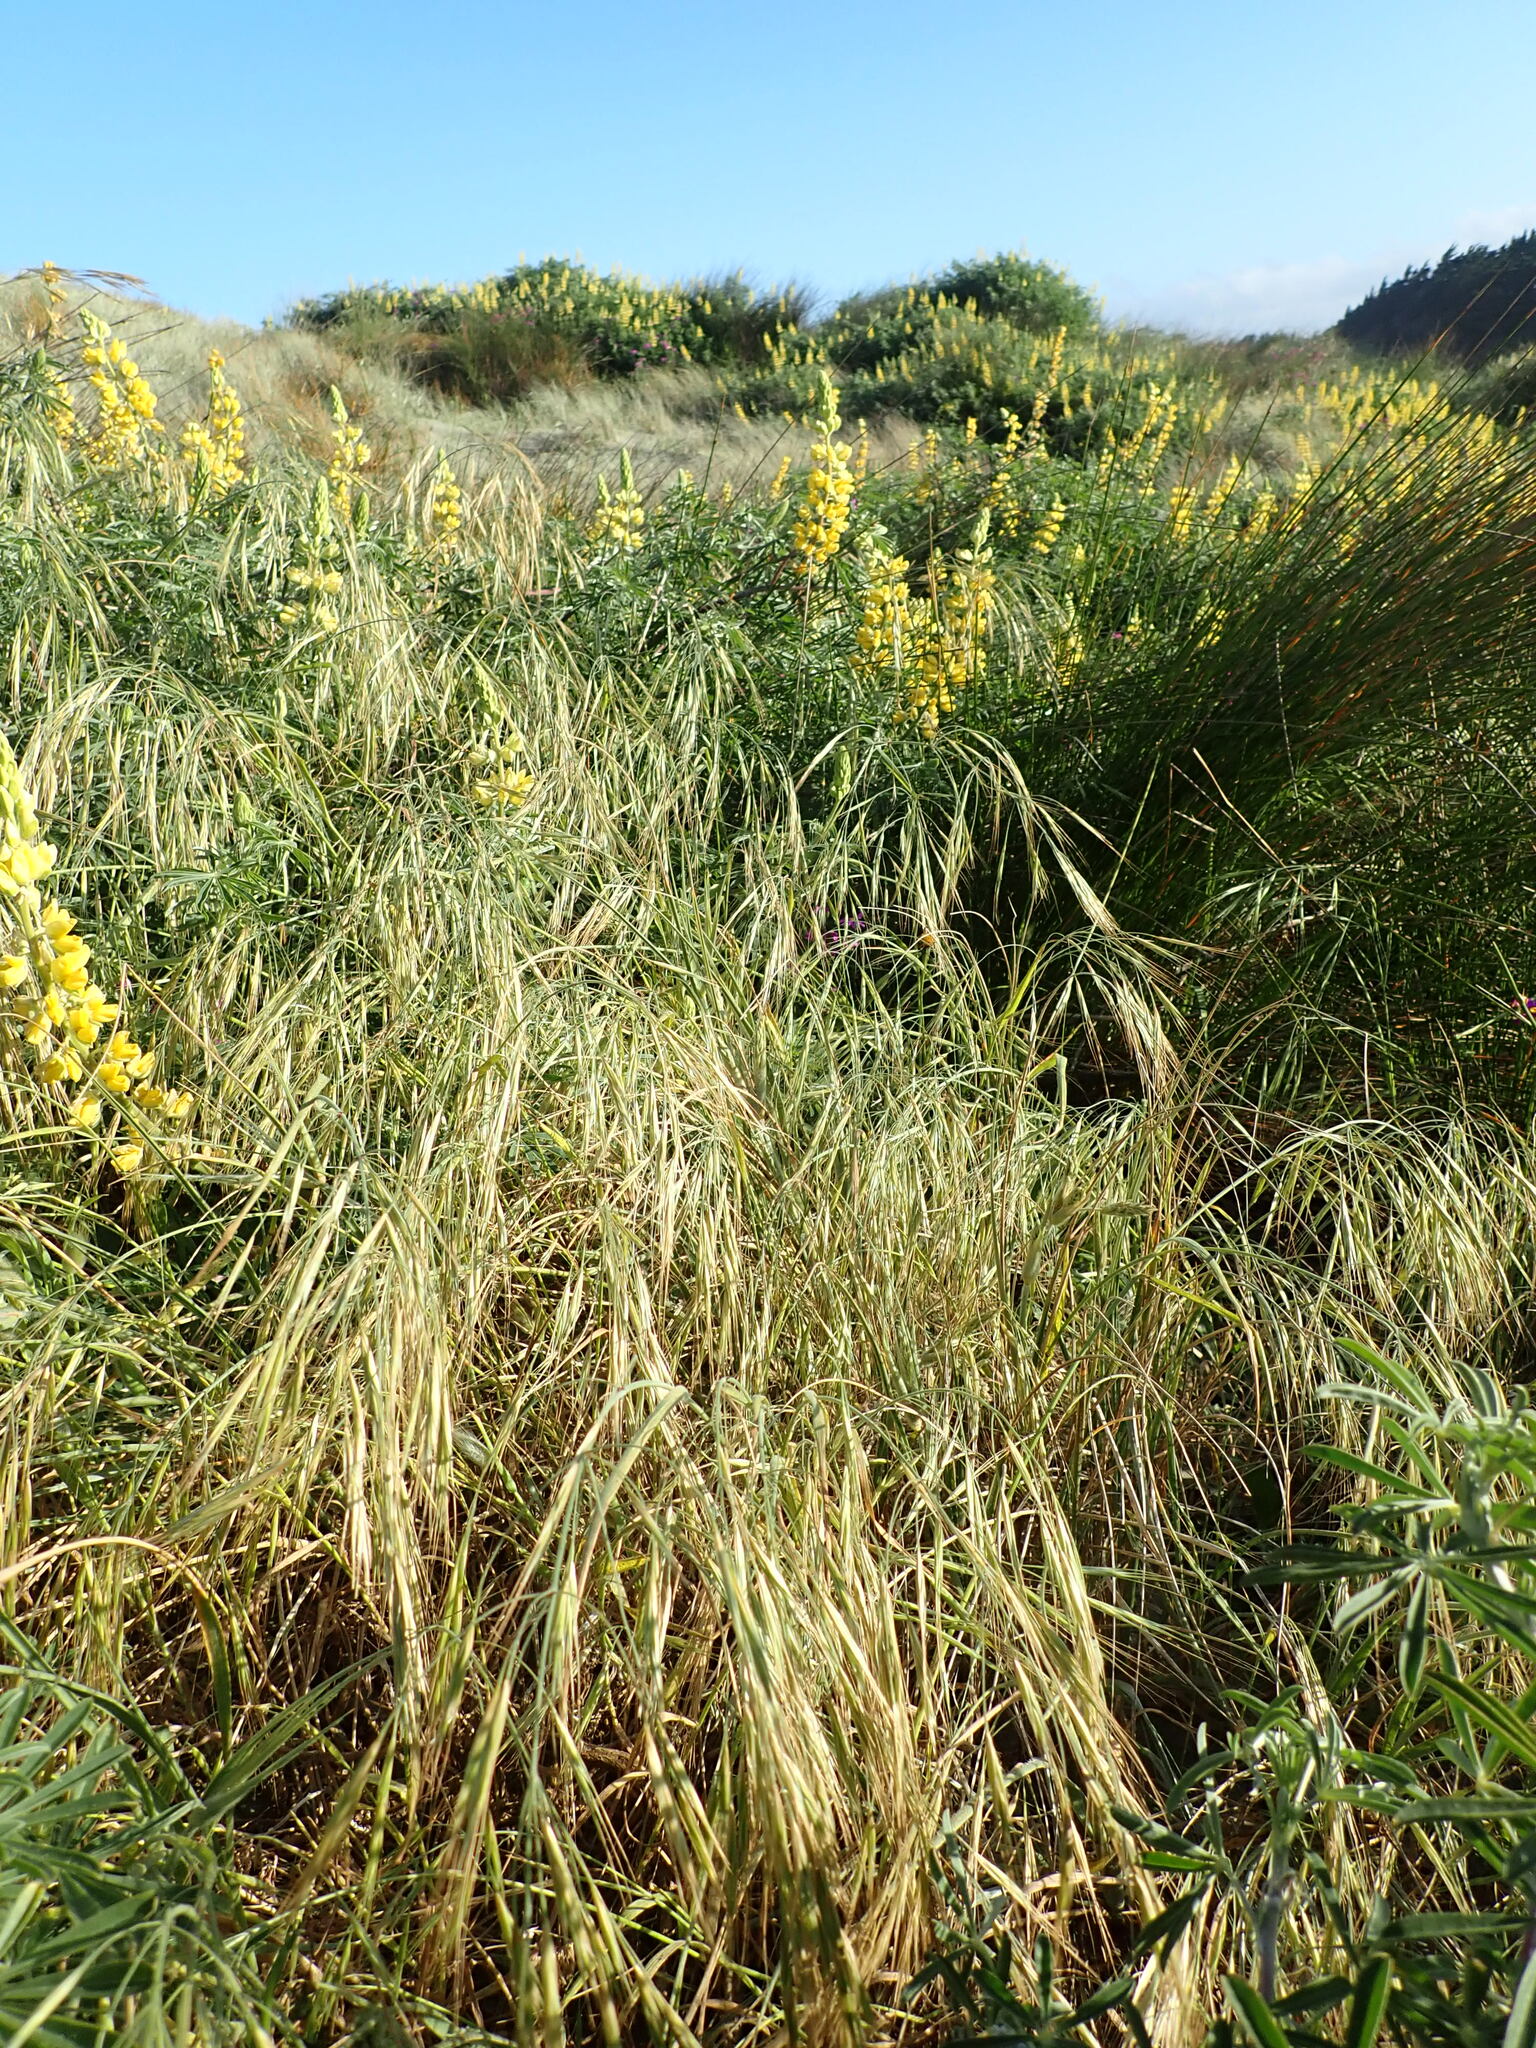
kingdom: Plantae
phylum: Tracheophyta
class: Liliopsida
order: Poales
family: Poaceae
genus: Bromus
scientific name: Bromus diandrus
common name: Ripgut brome
